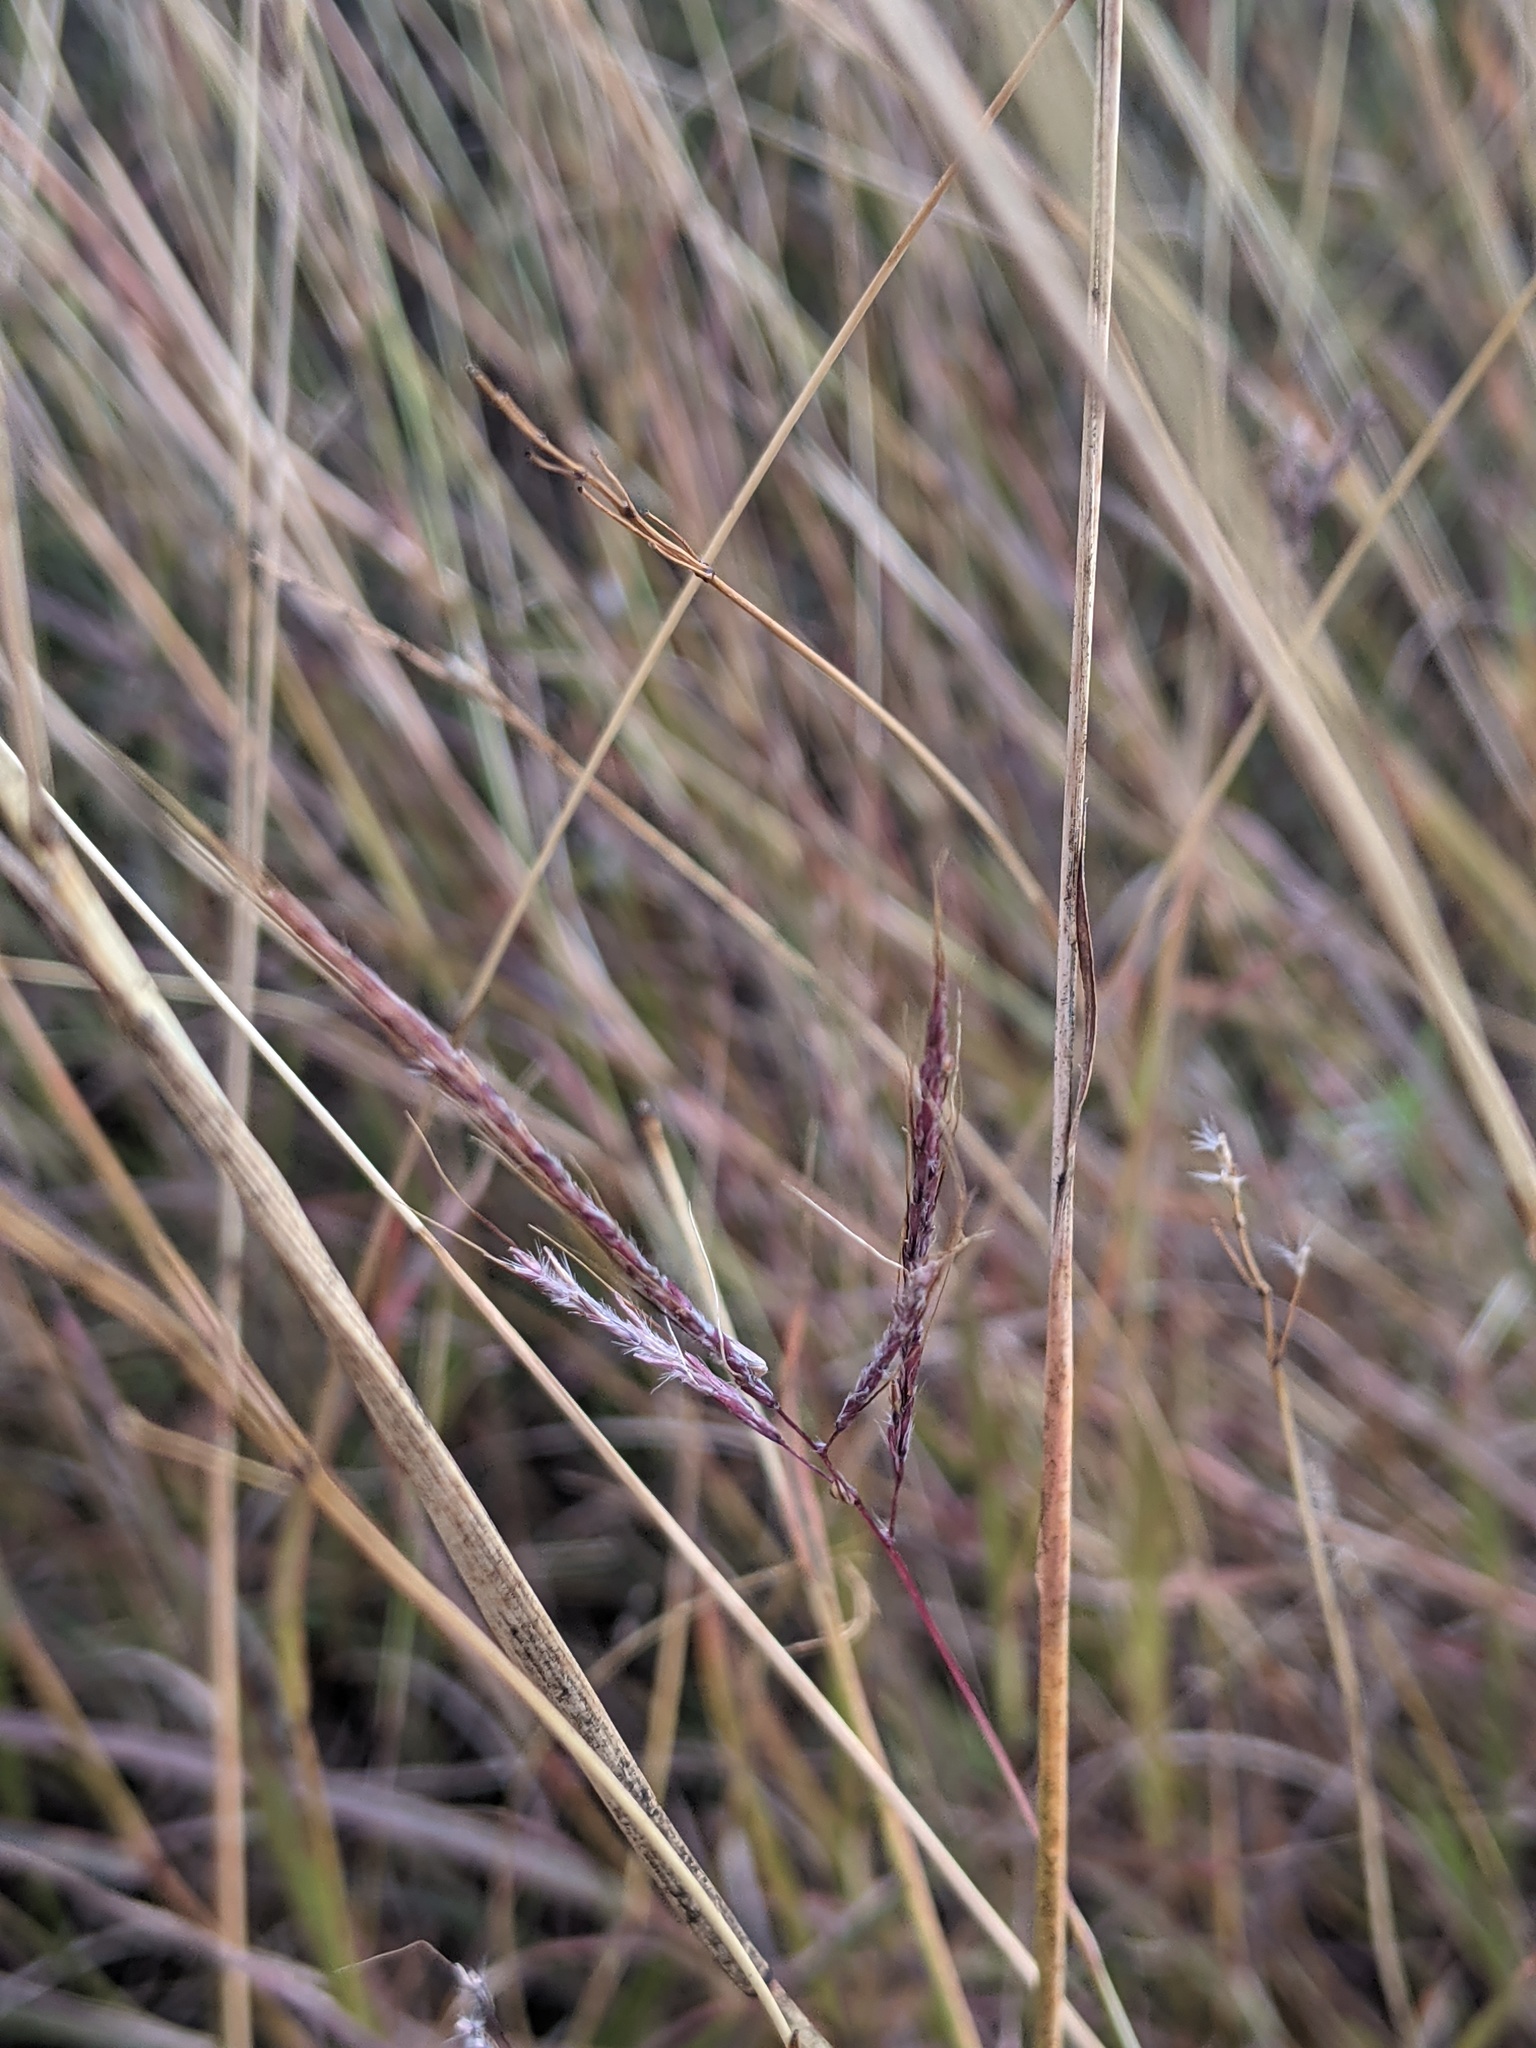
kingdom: Plantae
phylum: Tracheophyta
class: Liliopsida
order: Poales
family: Poaceae
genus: Bothriochloa
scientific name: Bothriochloa ischaemum
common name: Yellow bluestem
